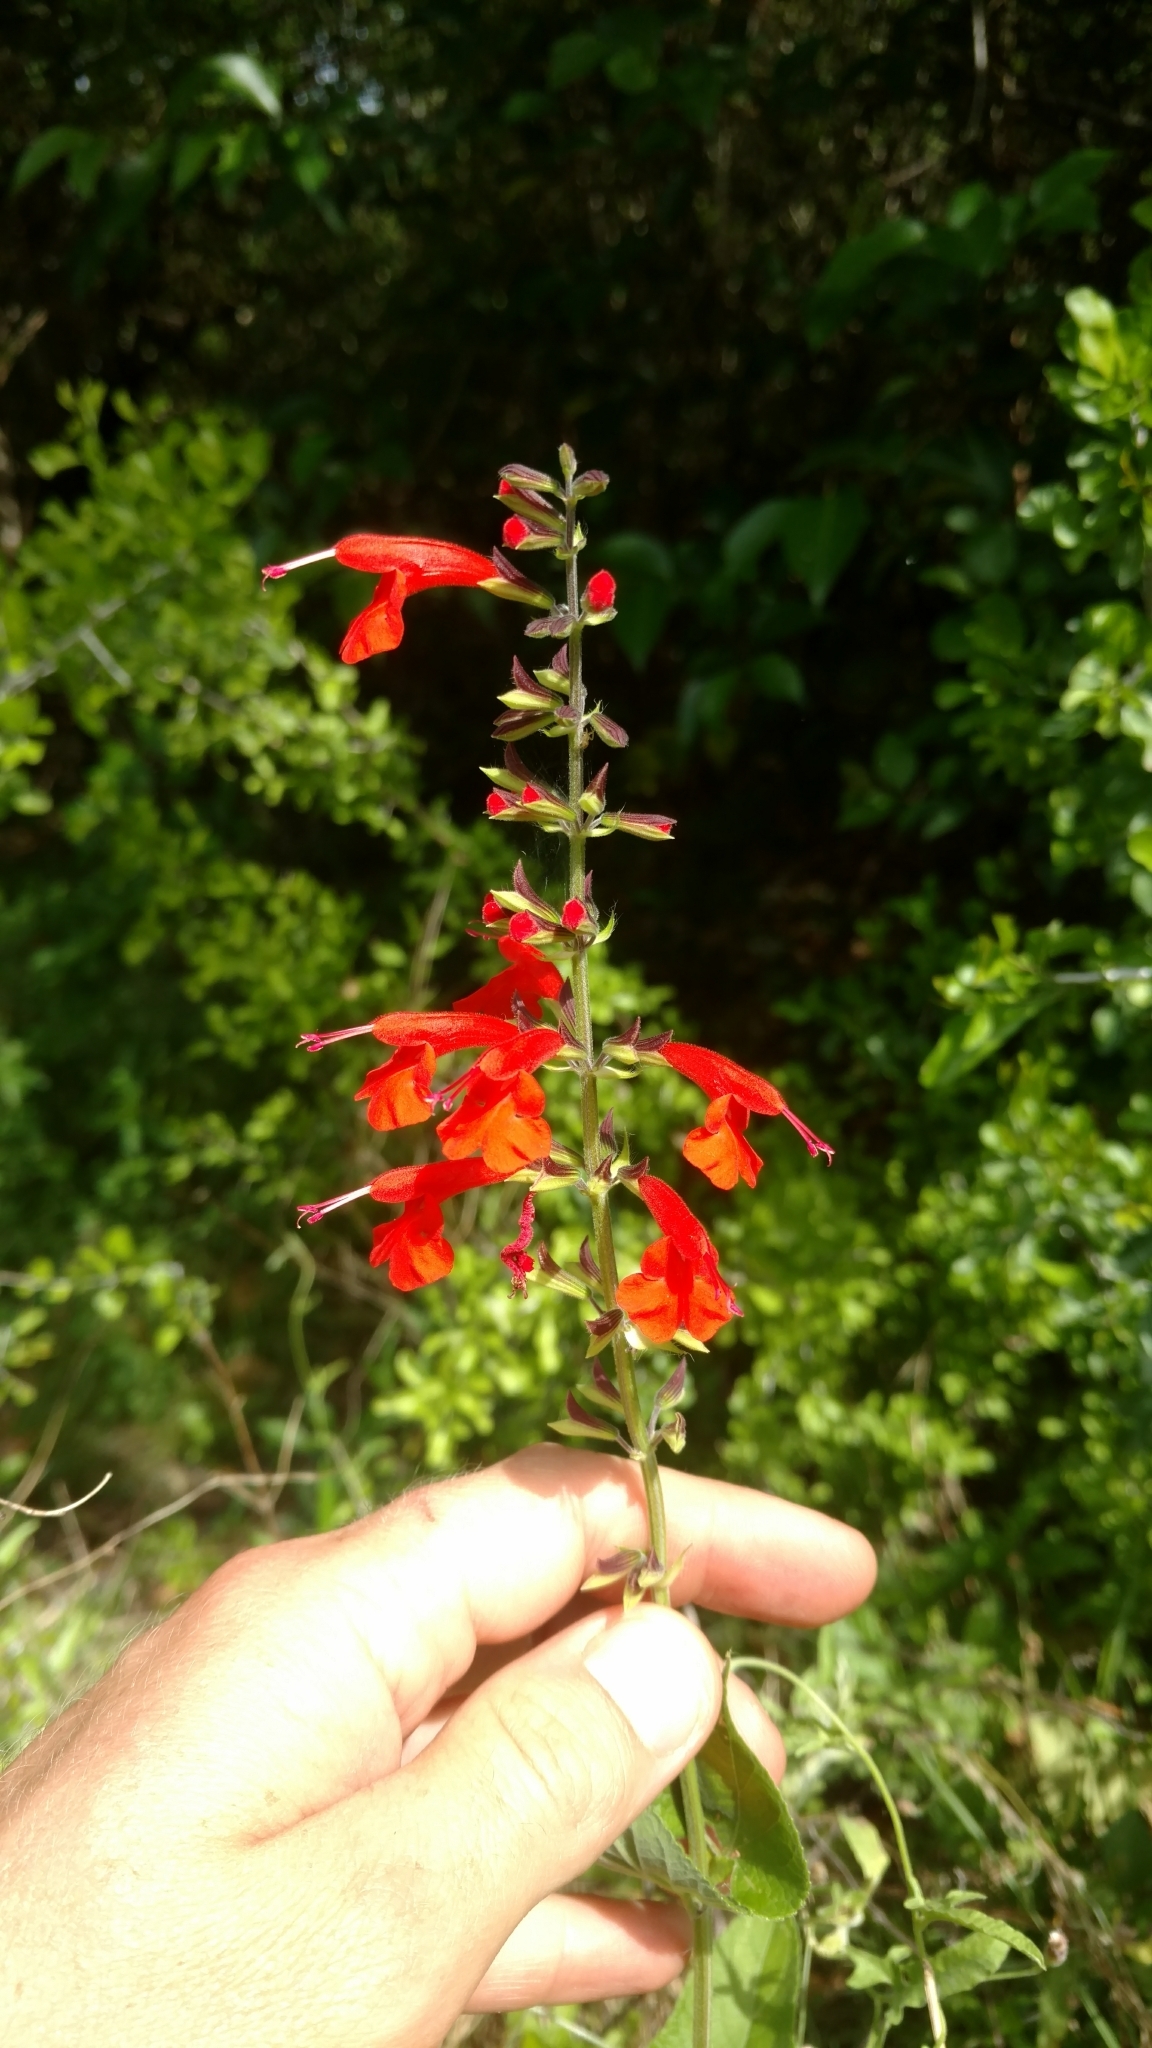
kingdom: Plantae
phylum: Tracheophyta
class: Magnoliopsida
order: Lamiales
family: Lamiaceae
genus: Salvia
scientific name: Salvia coccinea
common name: Blood sage
